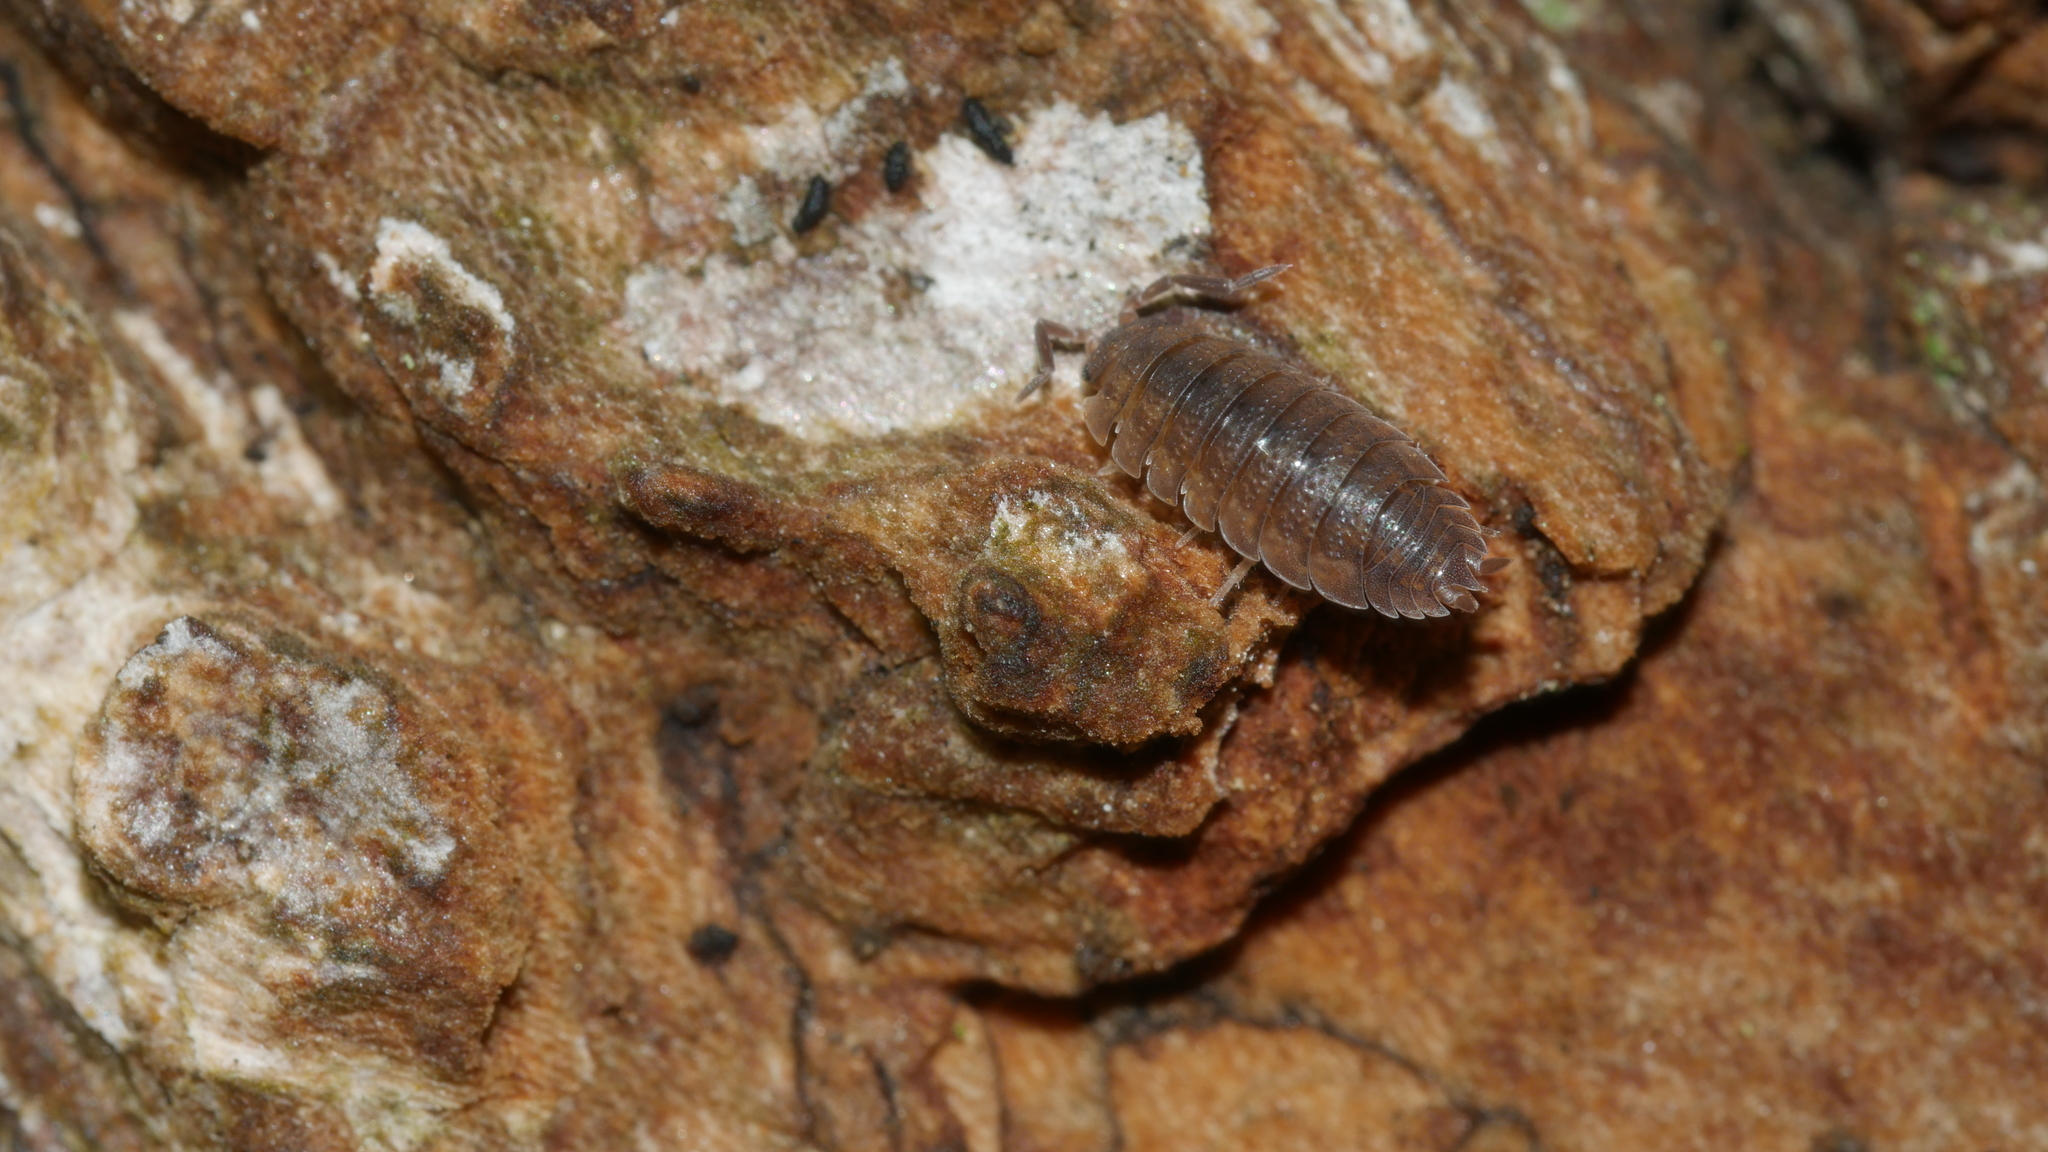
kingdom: Animalia
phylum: Arthropoda
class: Malacostraca
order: Isopoda
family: Porcellionidae
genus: Porcellio
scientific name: Porcellio scaber
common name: Common rough woodlouse
